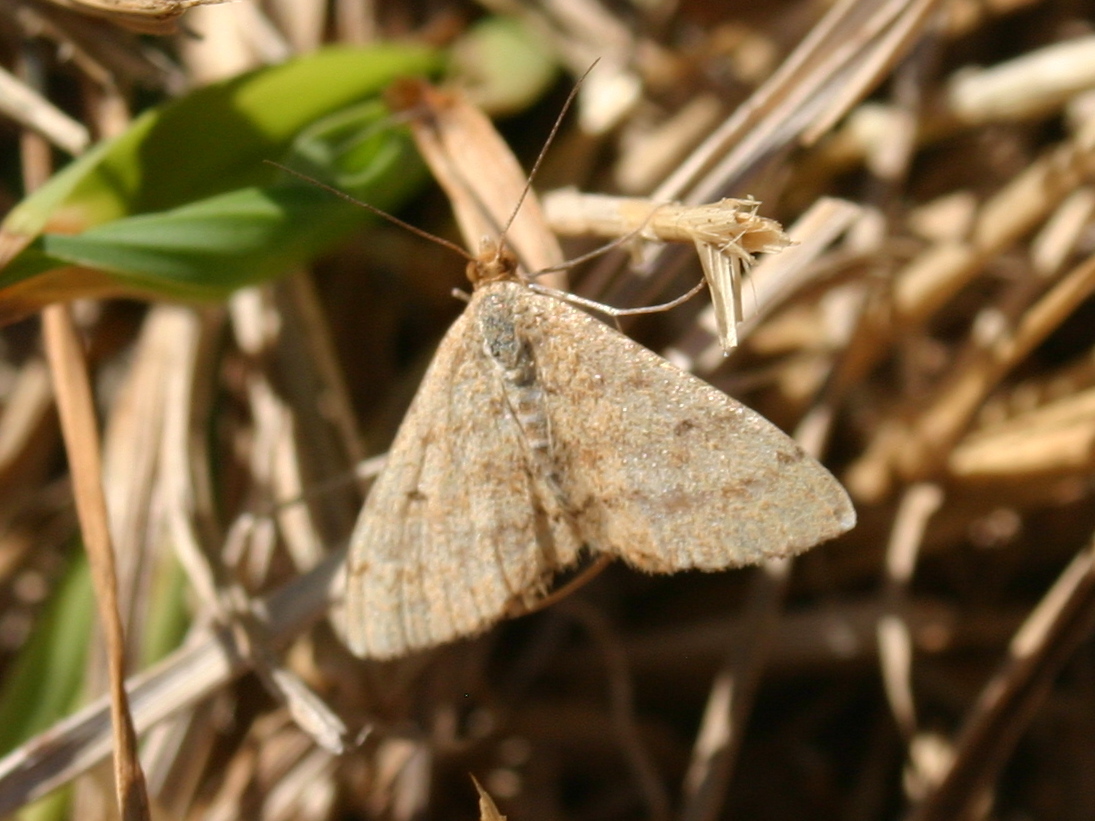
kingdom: Animalia
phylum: Arthropoda
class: Insecta
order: Lepidoptera
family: Geometridae
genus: Scopula
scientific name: Scopula rubraria
